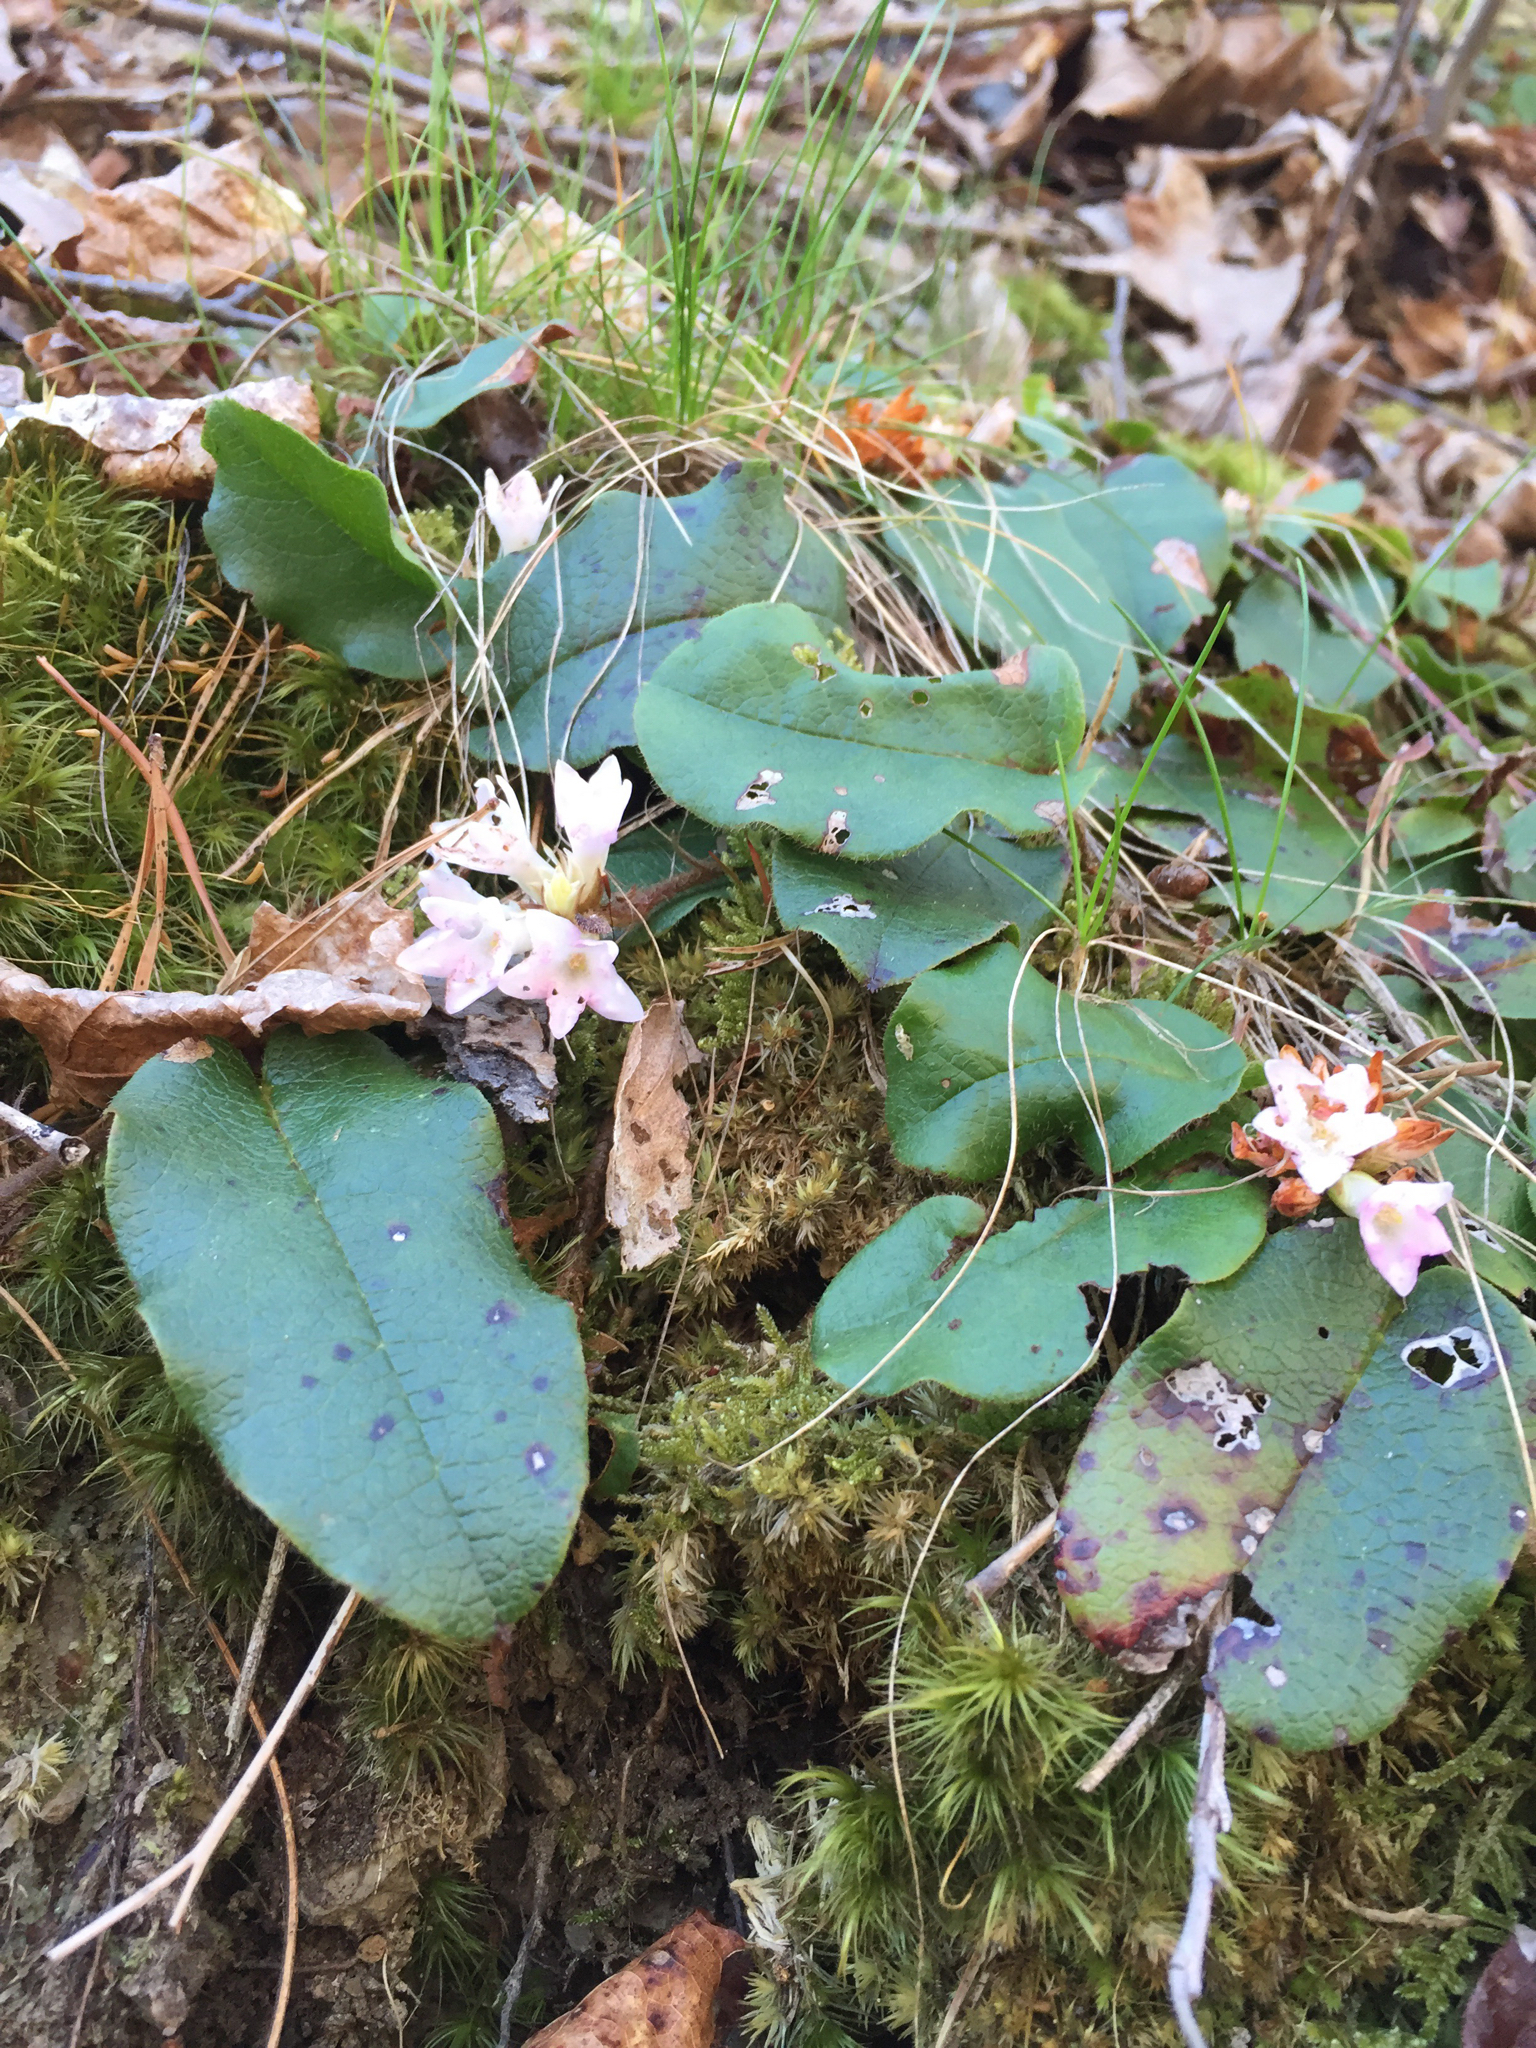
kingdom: Plantae
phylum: Tracheophyta
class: Magnoliopsida
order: Ericales
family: Ericaceae
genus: Epigaea
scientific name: Epigaea repens
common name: Gravelroot
